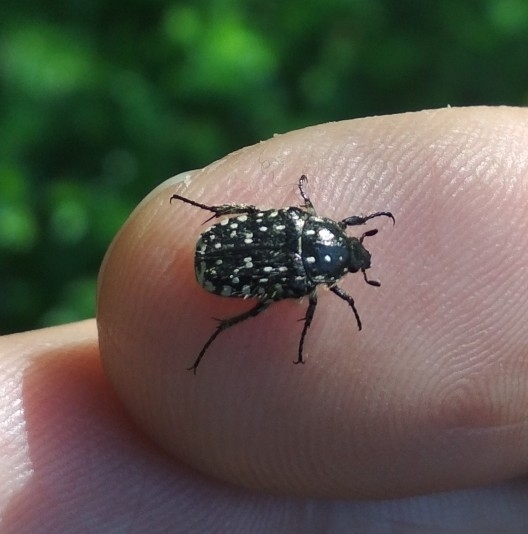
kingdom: Animalia
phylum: Arthropoda
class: Insecta
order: Coleoptera
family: Scarabaeidae
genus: Oxythyrea
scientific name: Oxythyrea funesta
